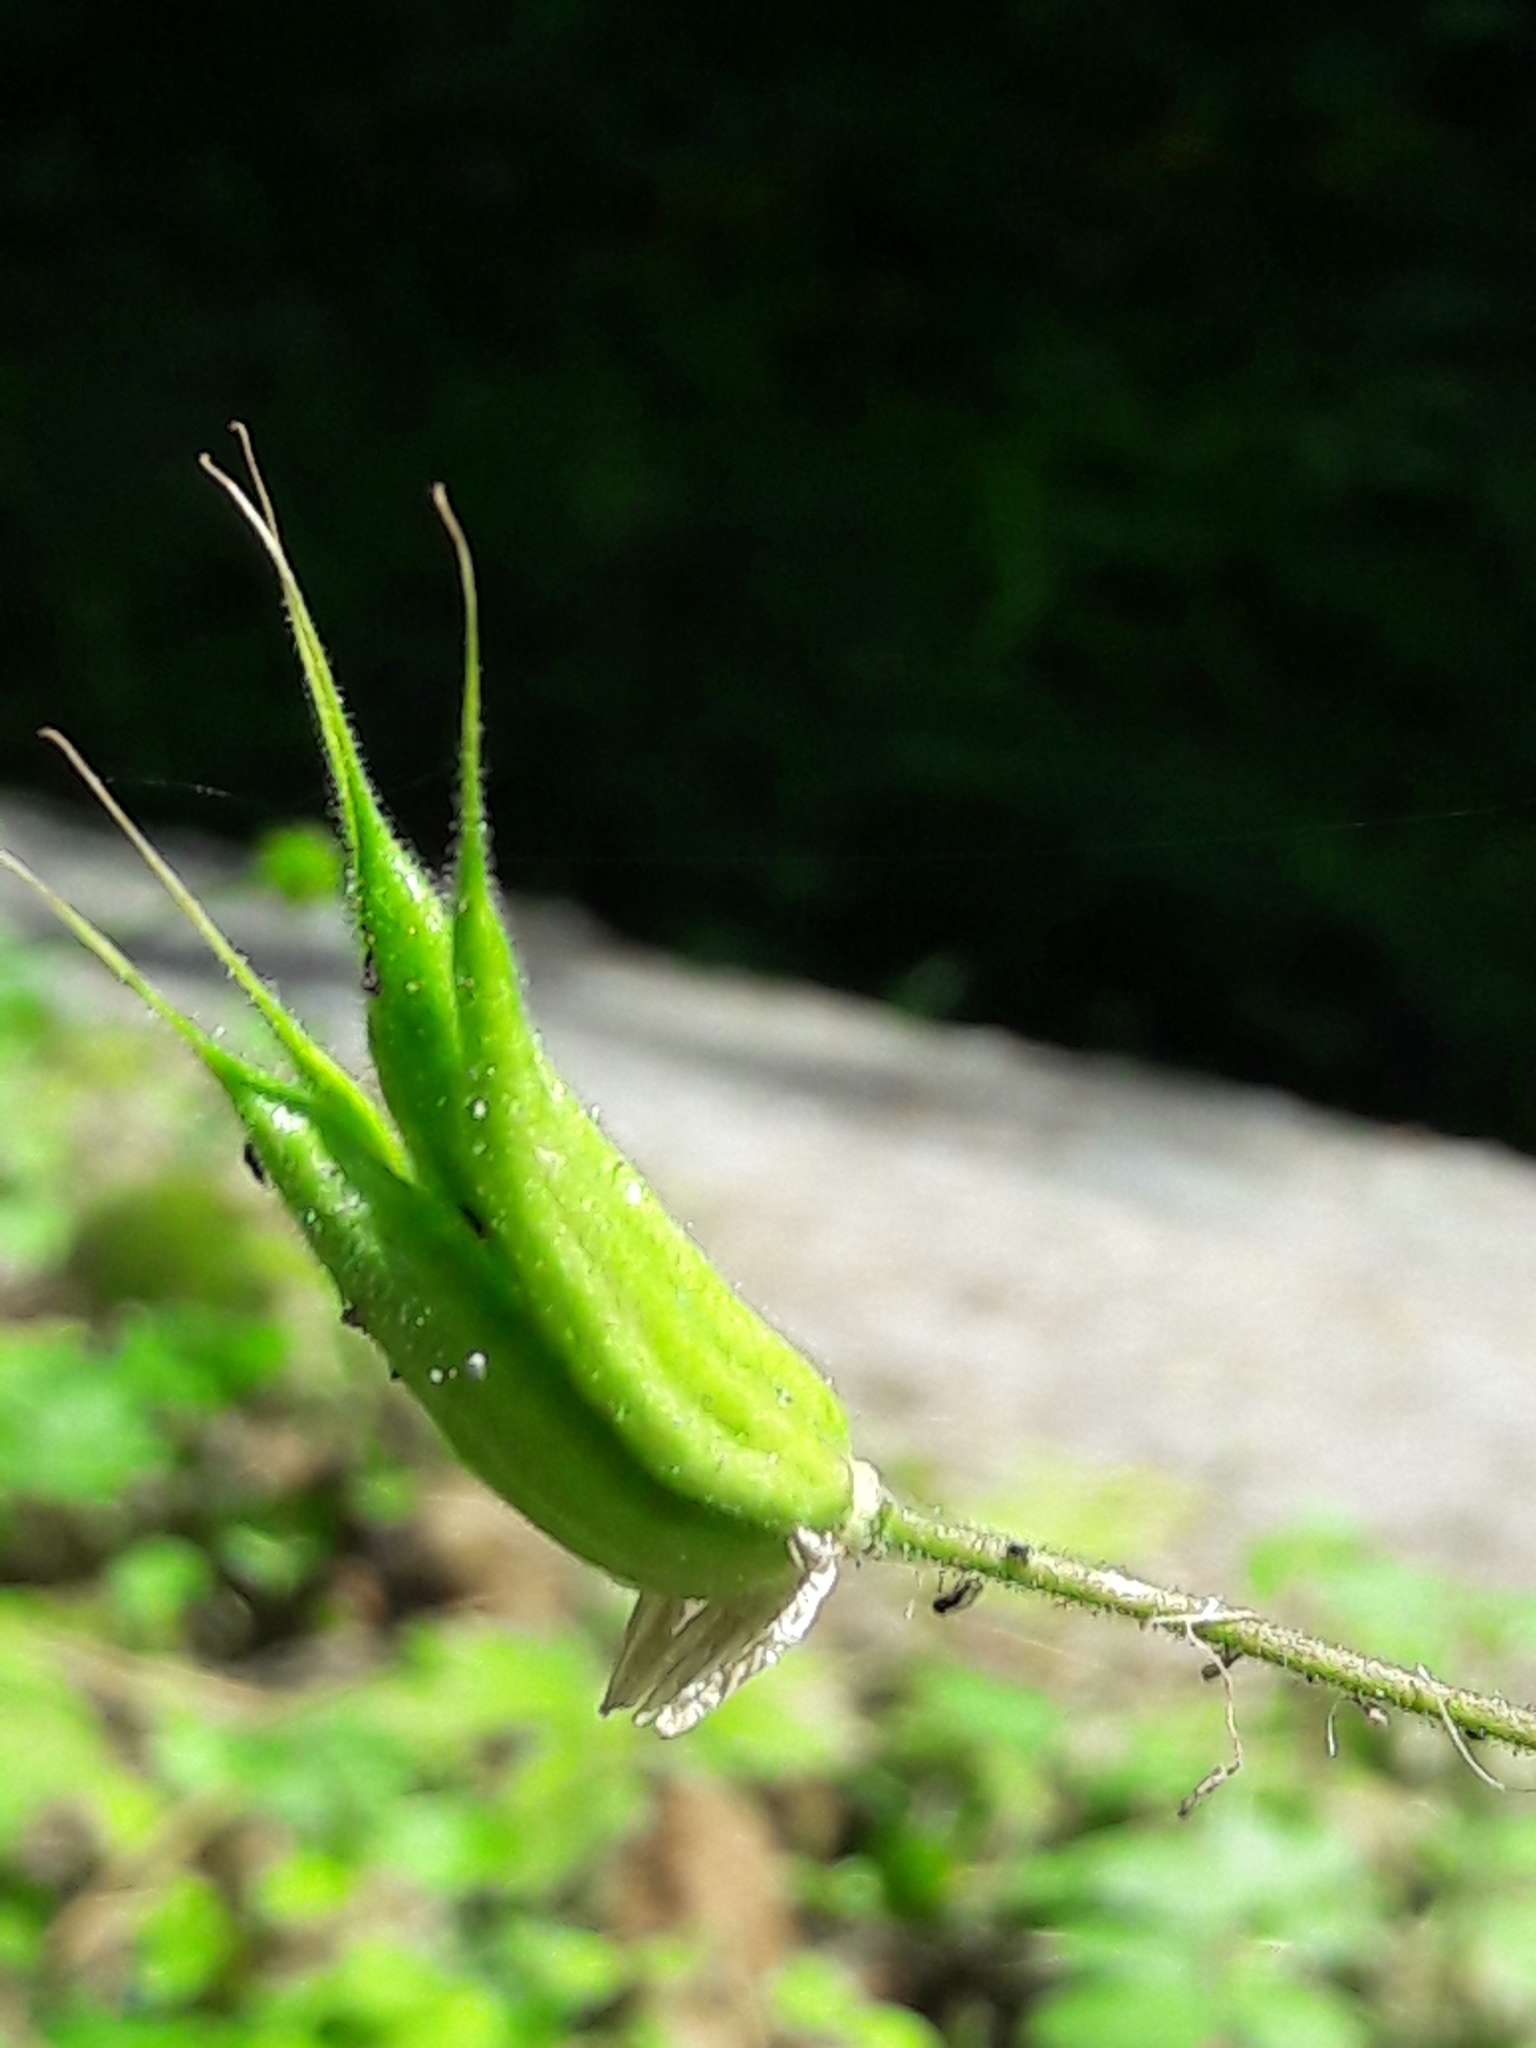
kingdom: Plantae
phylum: Tracheophyta
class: Magnoliopsida
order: Ranunculales
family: Ranunculaceae
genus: Aquilegia
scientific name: Aquilegia atrata
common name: Dark columbine
